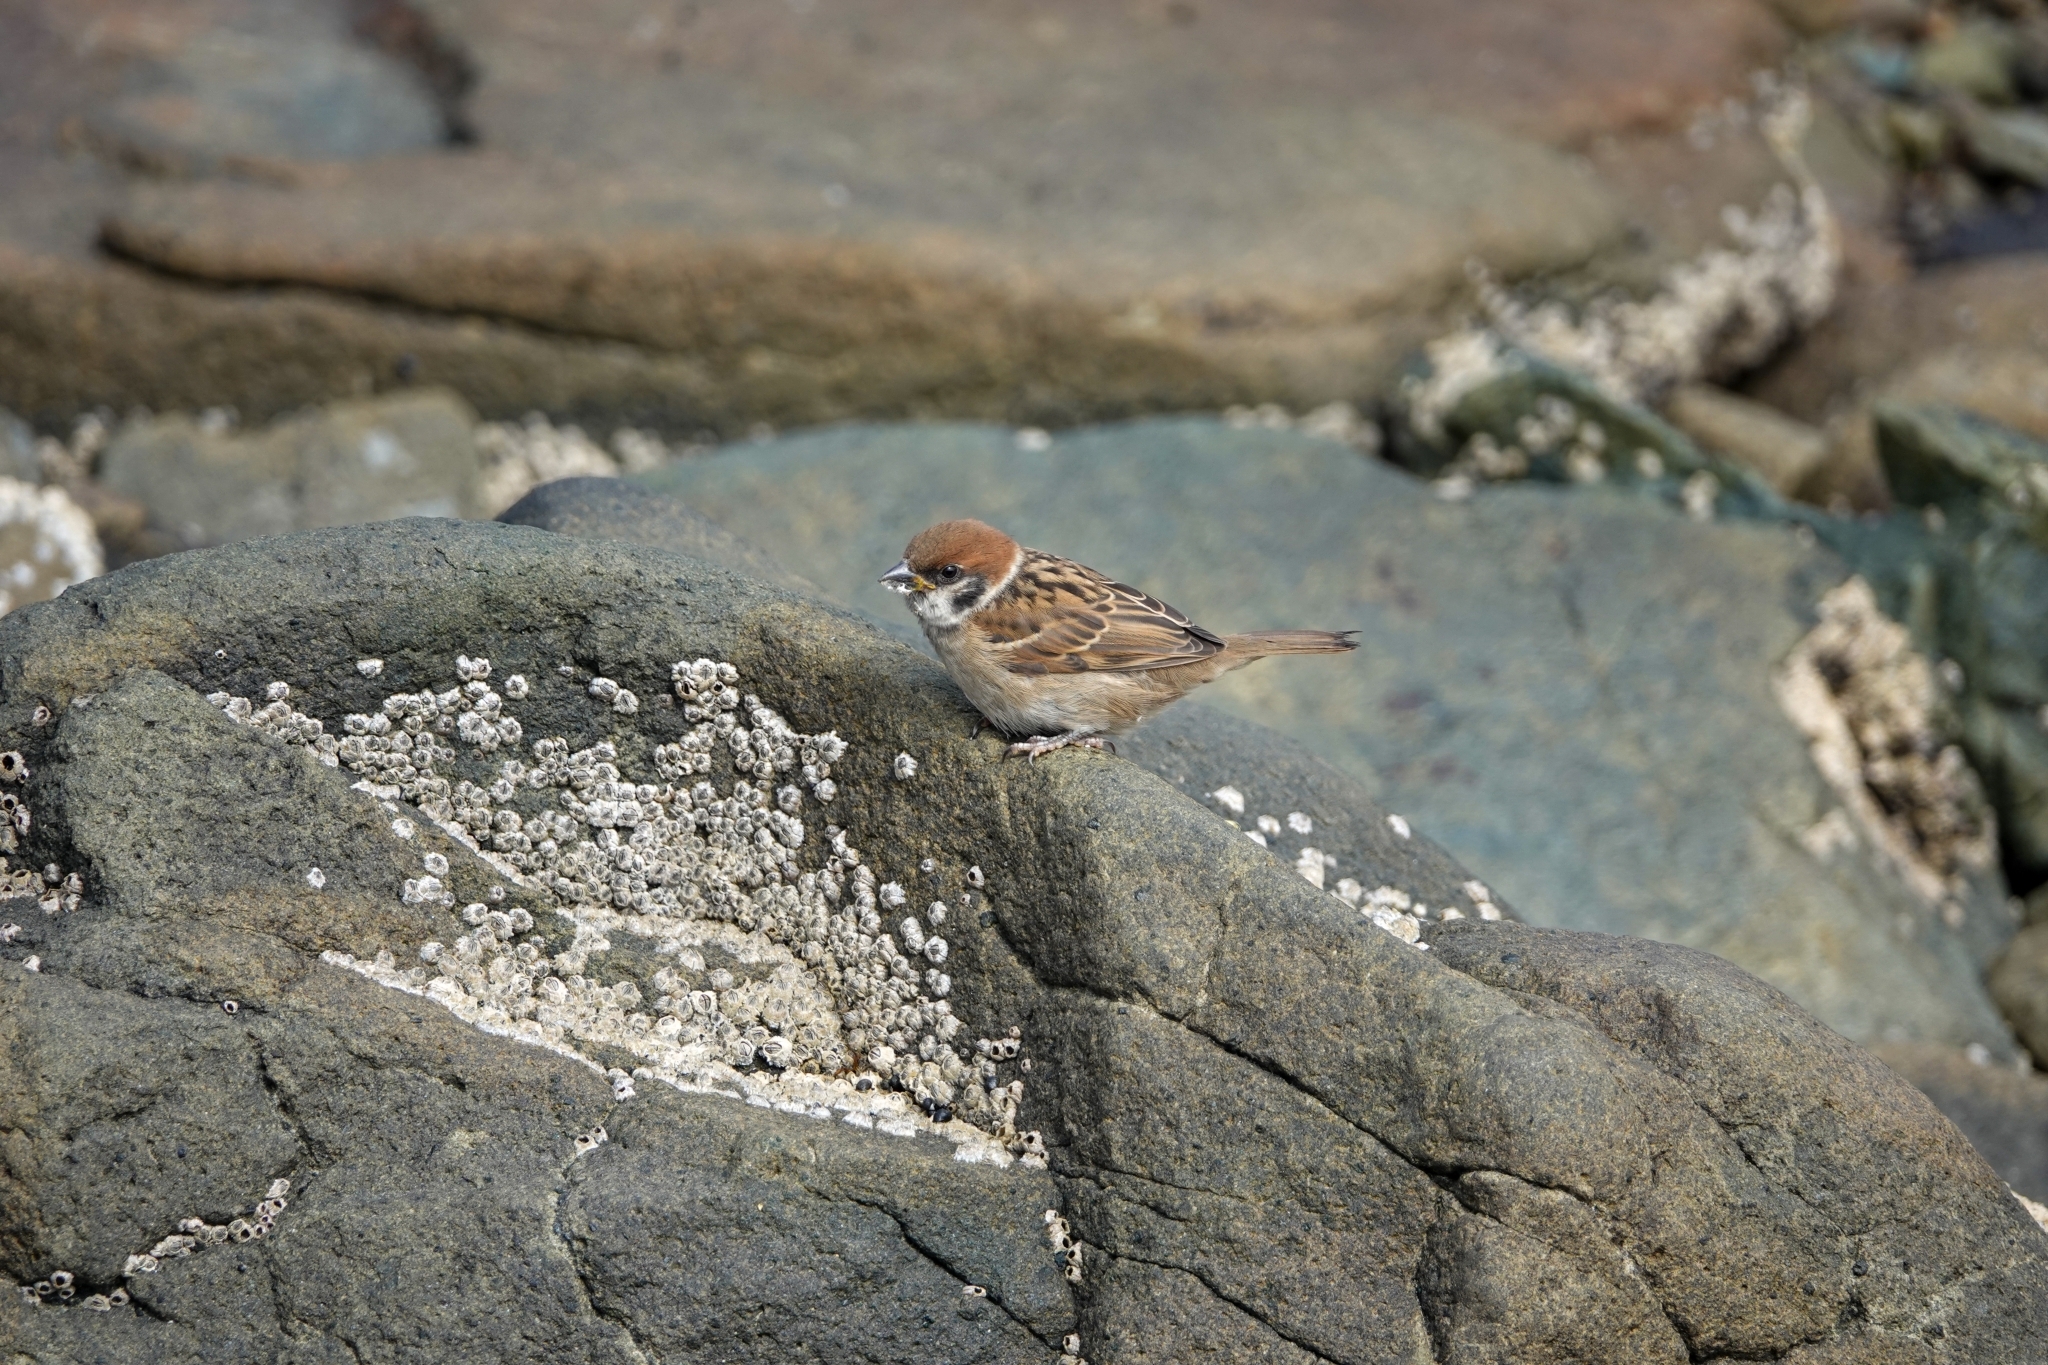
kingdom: Animalia
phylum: Chordata
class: Aves
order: Passeriformes
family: Passeridae
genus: Passer
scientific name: Passer montanus
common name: Eurasian tree sparrow
